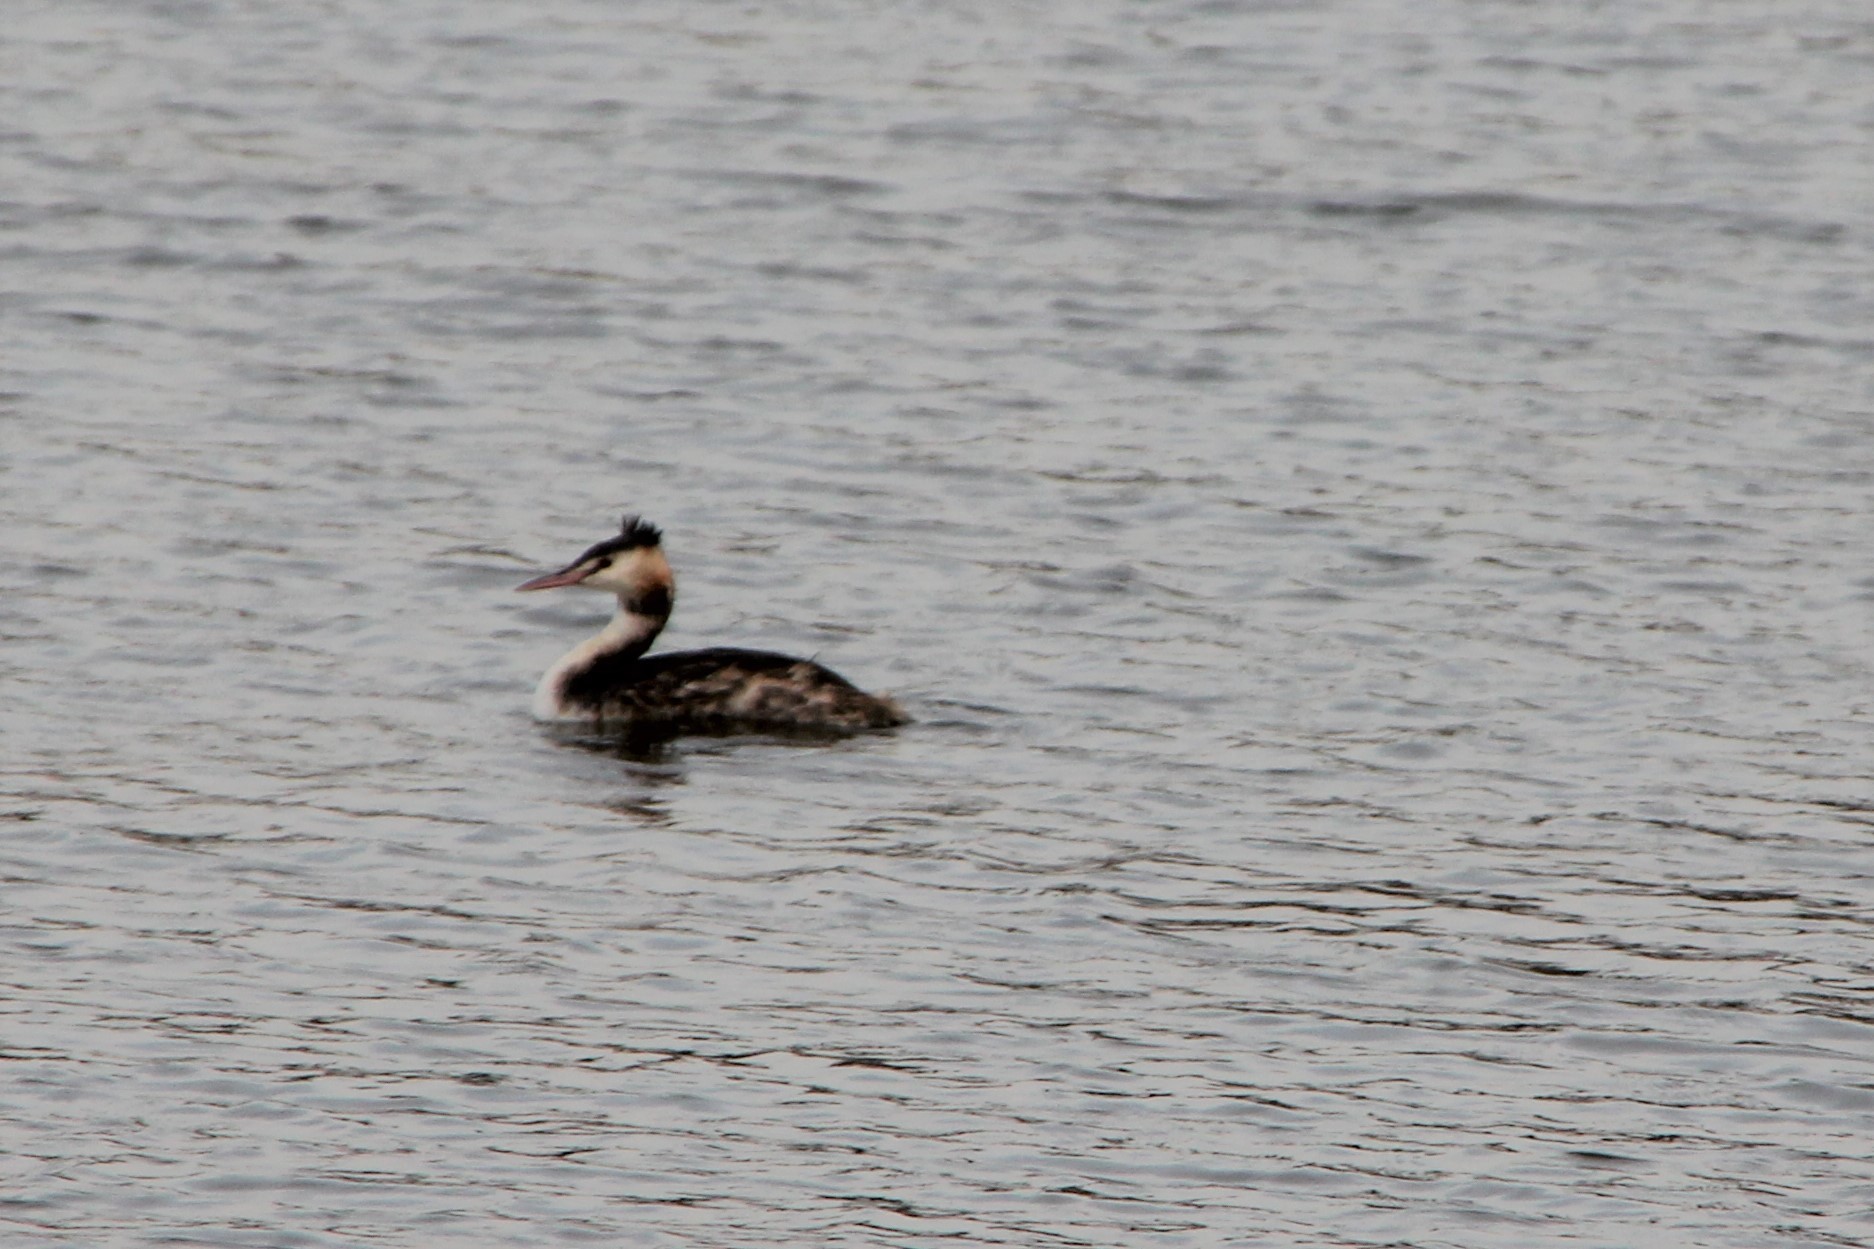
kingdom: Animalia
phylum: Chordata
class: Aves
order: Podicipediformes
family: Podicipedidae
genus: Podiceps
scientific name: Podiceps cristatus
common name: Great crested grebe
